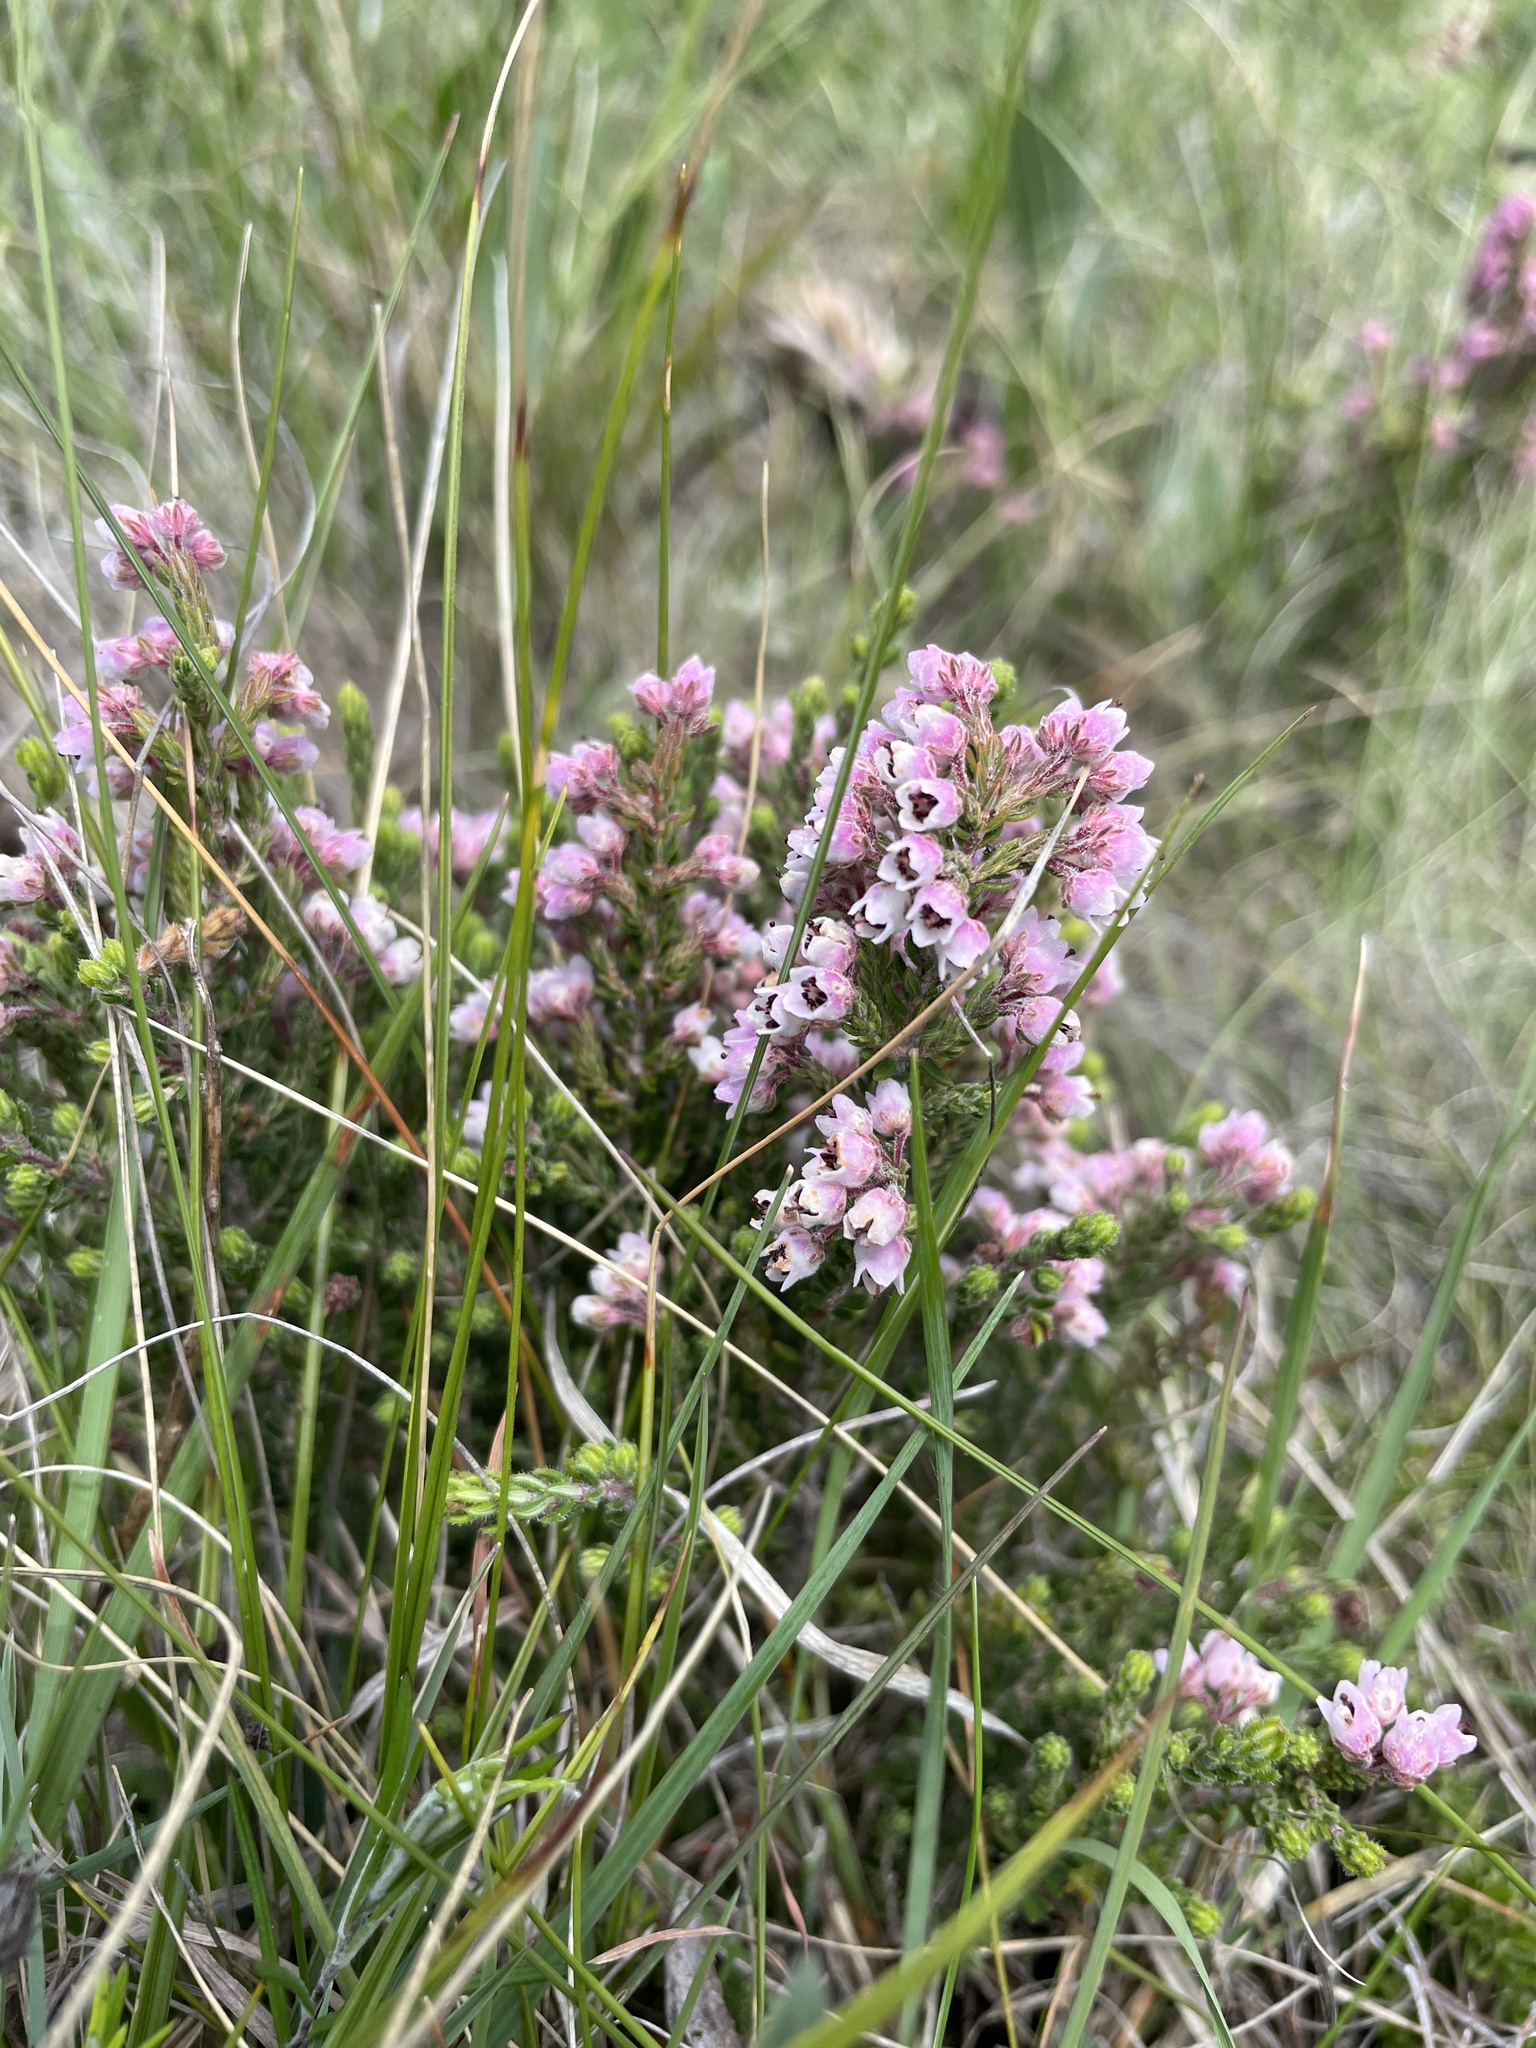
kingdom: Plantae
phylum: Tracheophyta
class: Magnoliopsida
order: Ericales
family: Ericaceae
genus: Erica
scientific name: Erica woodii
